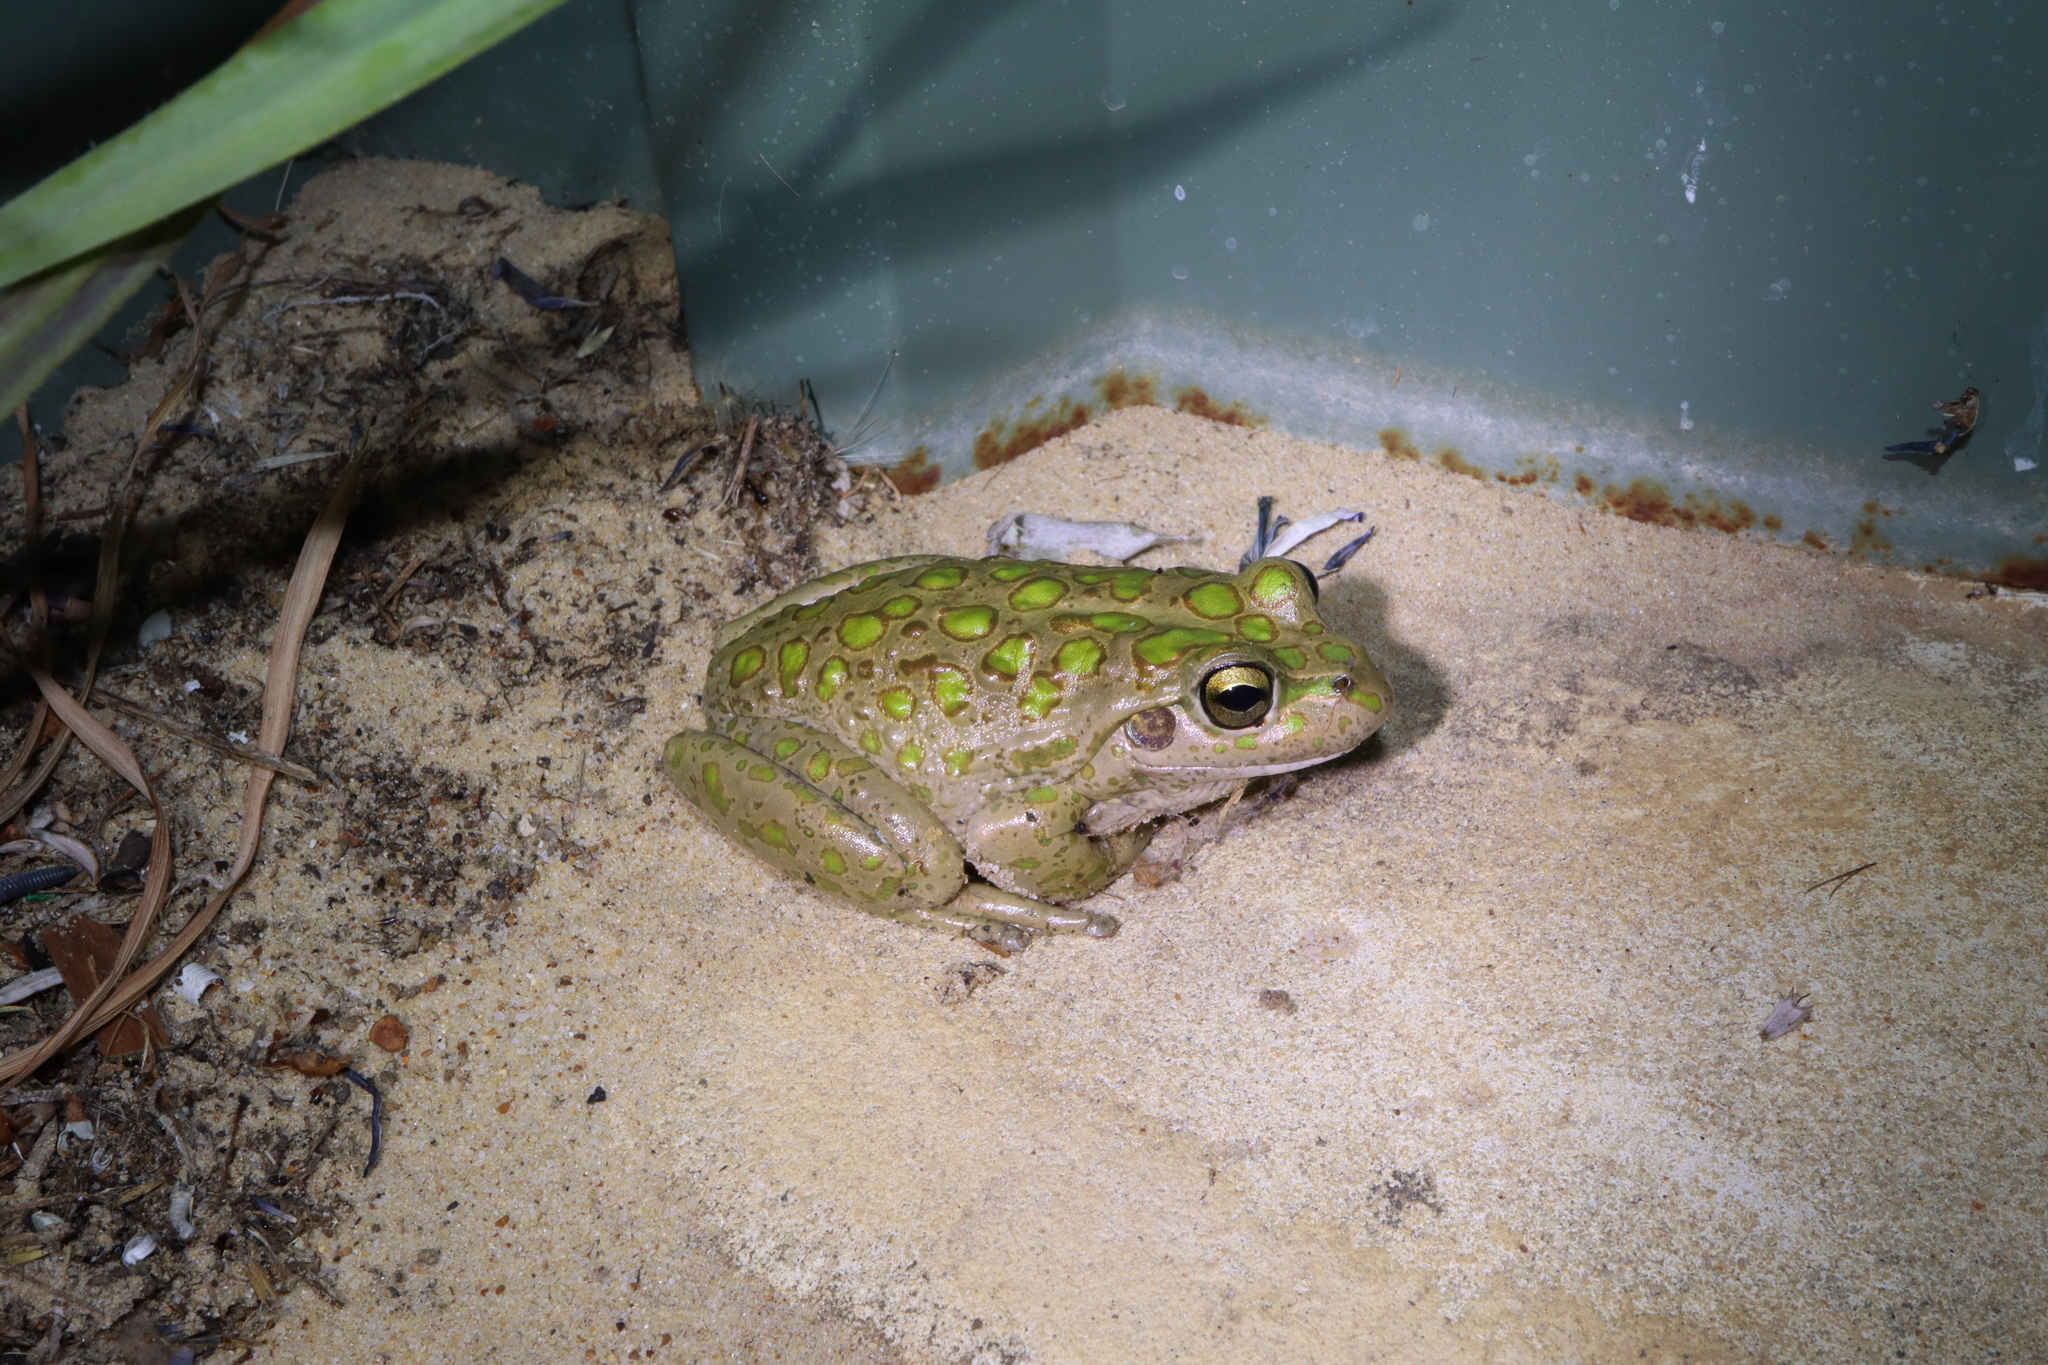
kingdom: Animalia
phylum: Chordata
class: Amphibia
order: Anura
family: Pelodryadidae
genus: Ranoidea
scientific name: Ranoidea cyclorhynchus
